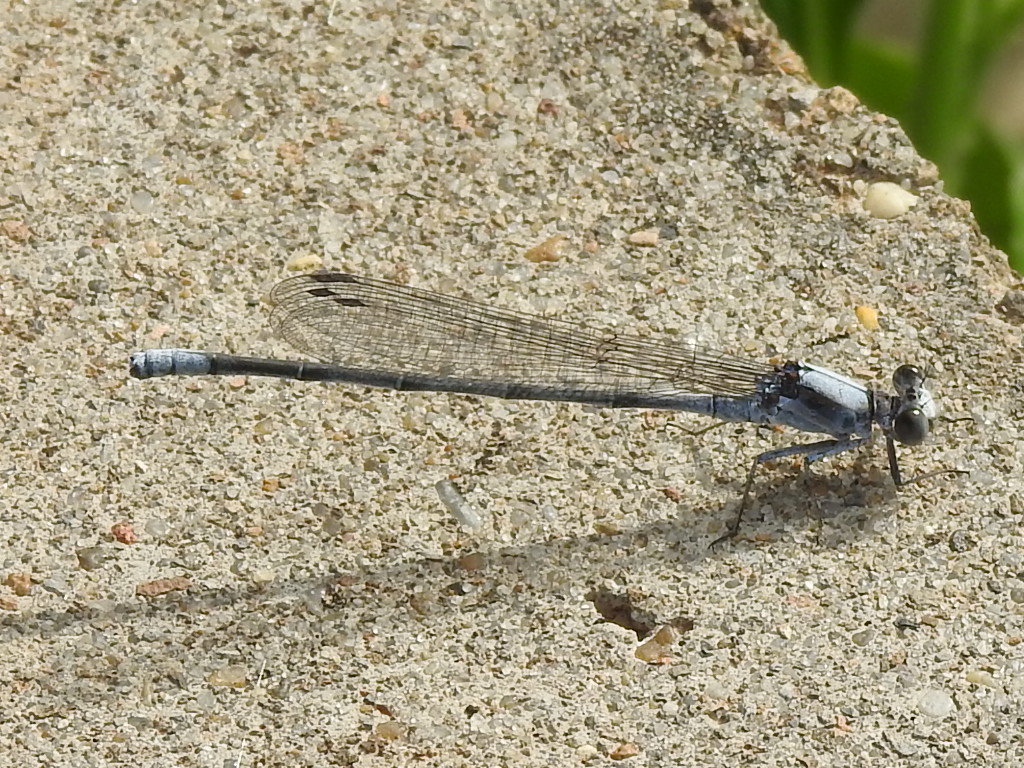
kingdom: Animalia
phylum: Arthropoda
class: Insecta
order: Odonata
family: Coenagrionidae
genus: Argia
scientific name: Argia moesta
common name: Powdered dancer
